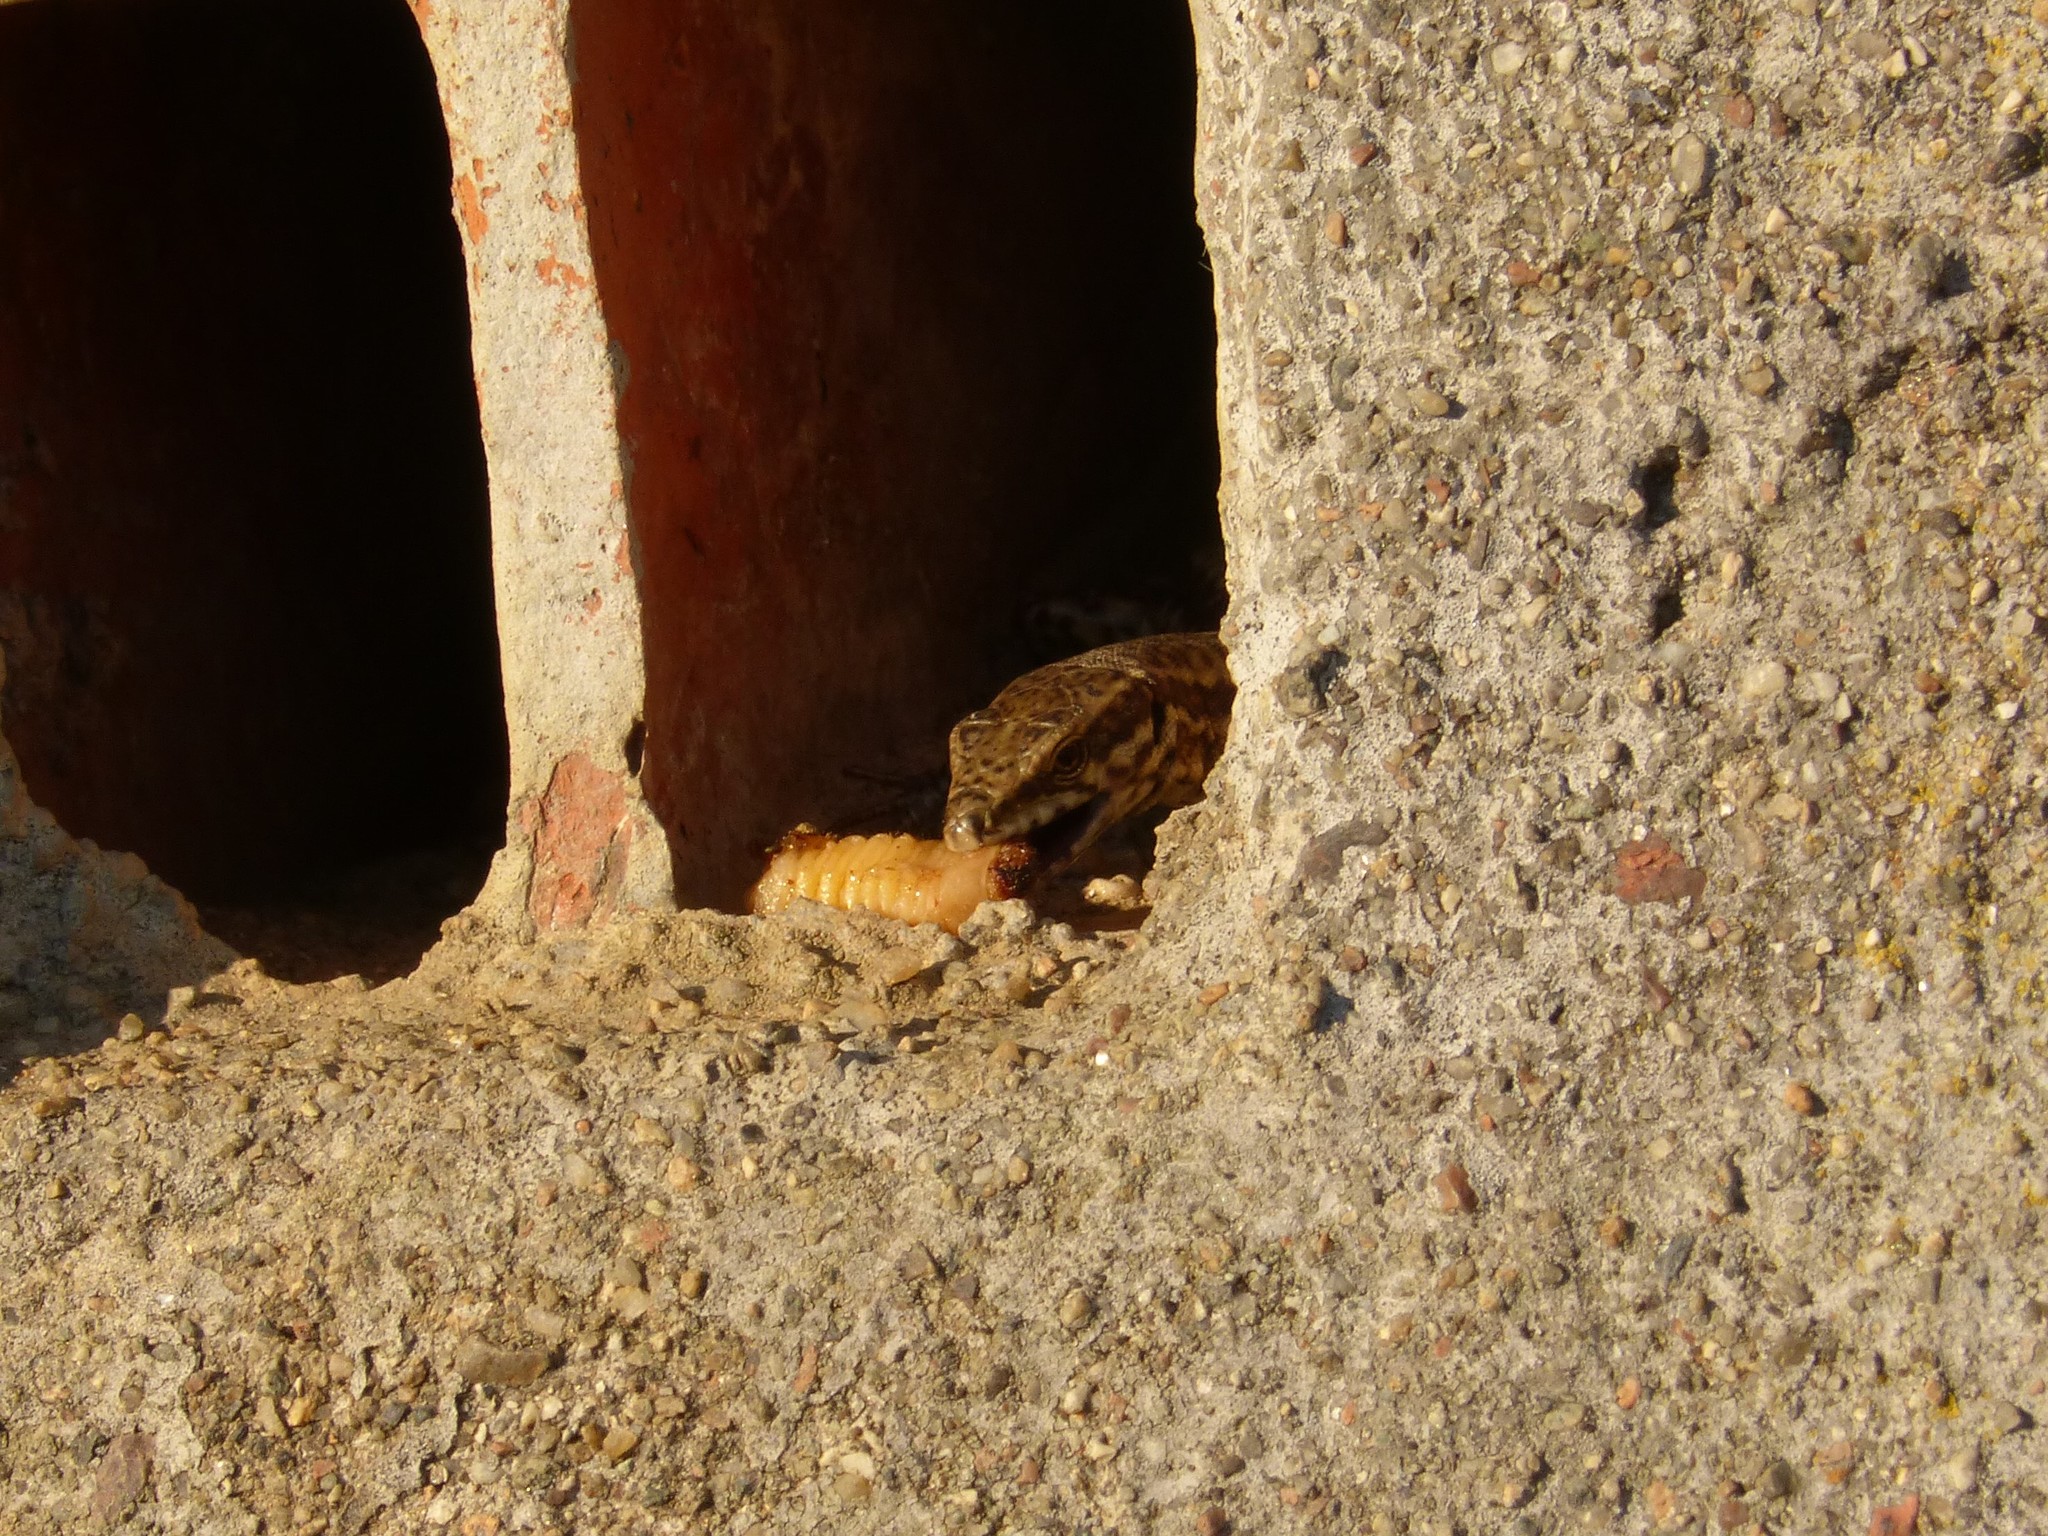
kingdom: Animalia
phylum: Chordata
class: Squamata
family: Lacertidae
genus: Podarcis
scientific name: Podarcis muralis
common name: Common wall lizard
